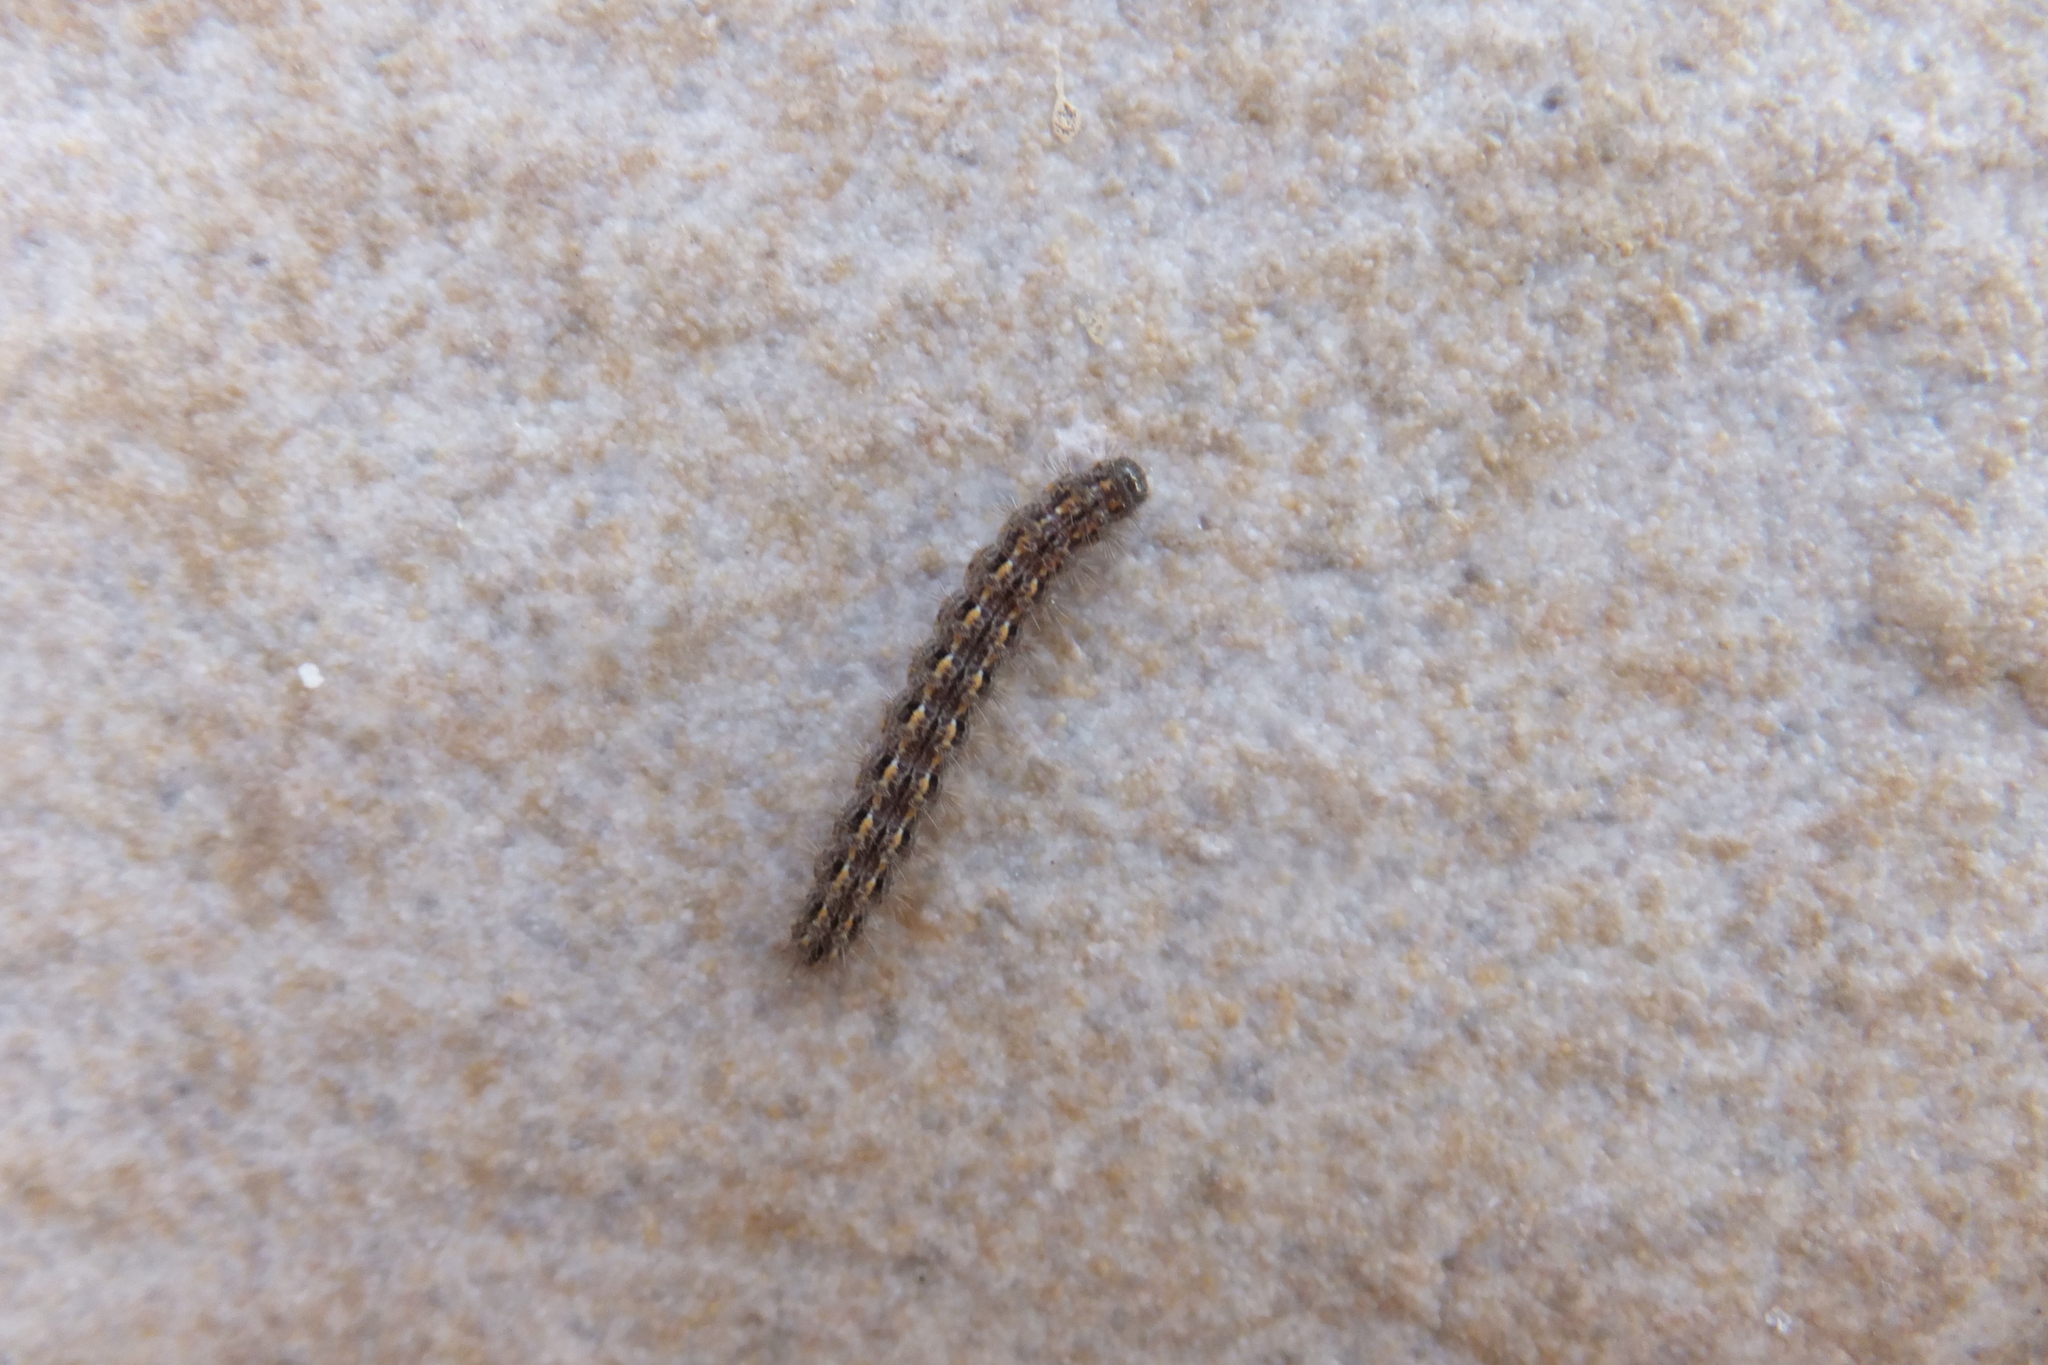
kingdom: Animalia
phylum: Arthropoda
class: Insecta
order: Lepidoptera
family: Erebidae
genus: Eilema
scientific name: Eilema caniola
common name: Hoary footman
